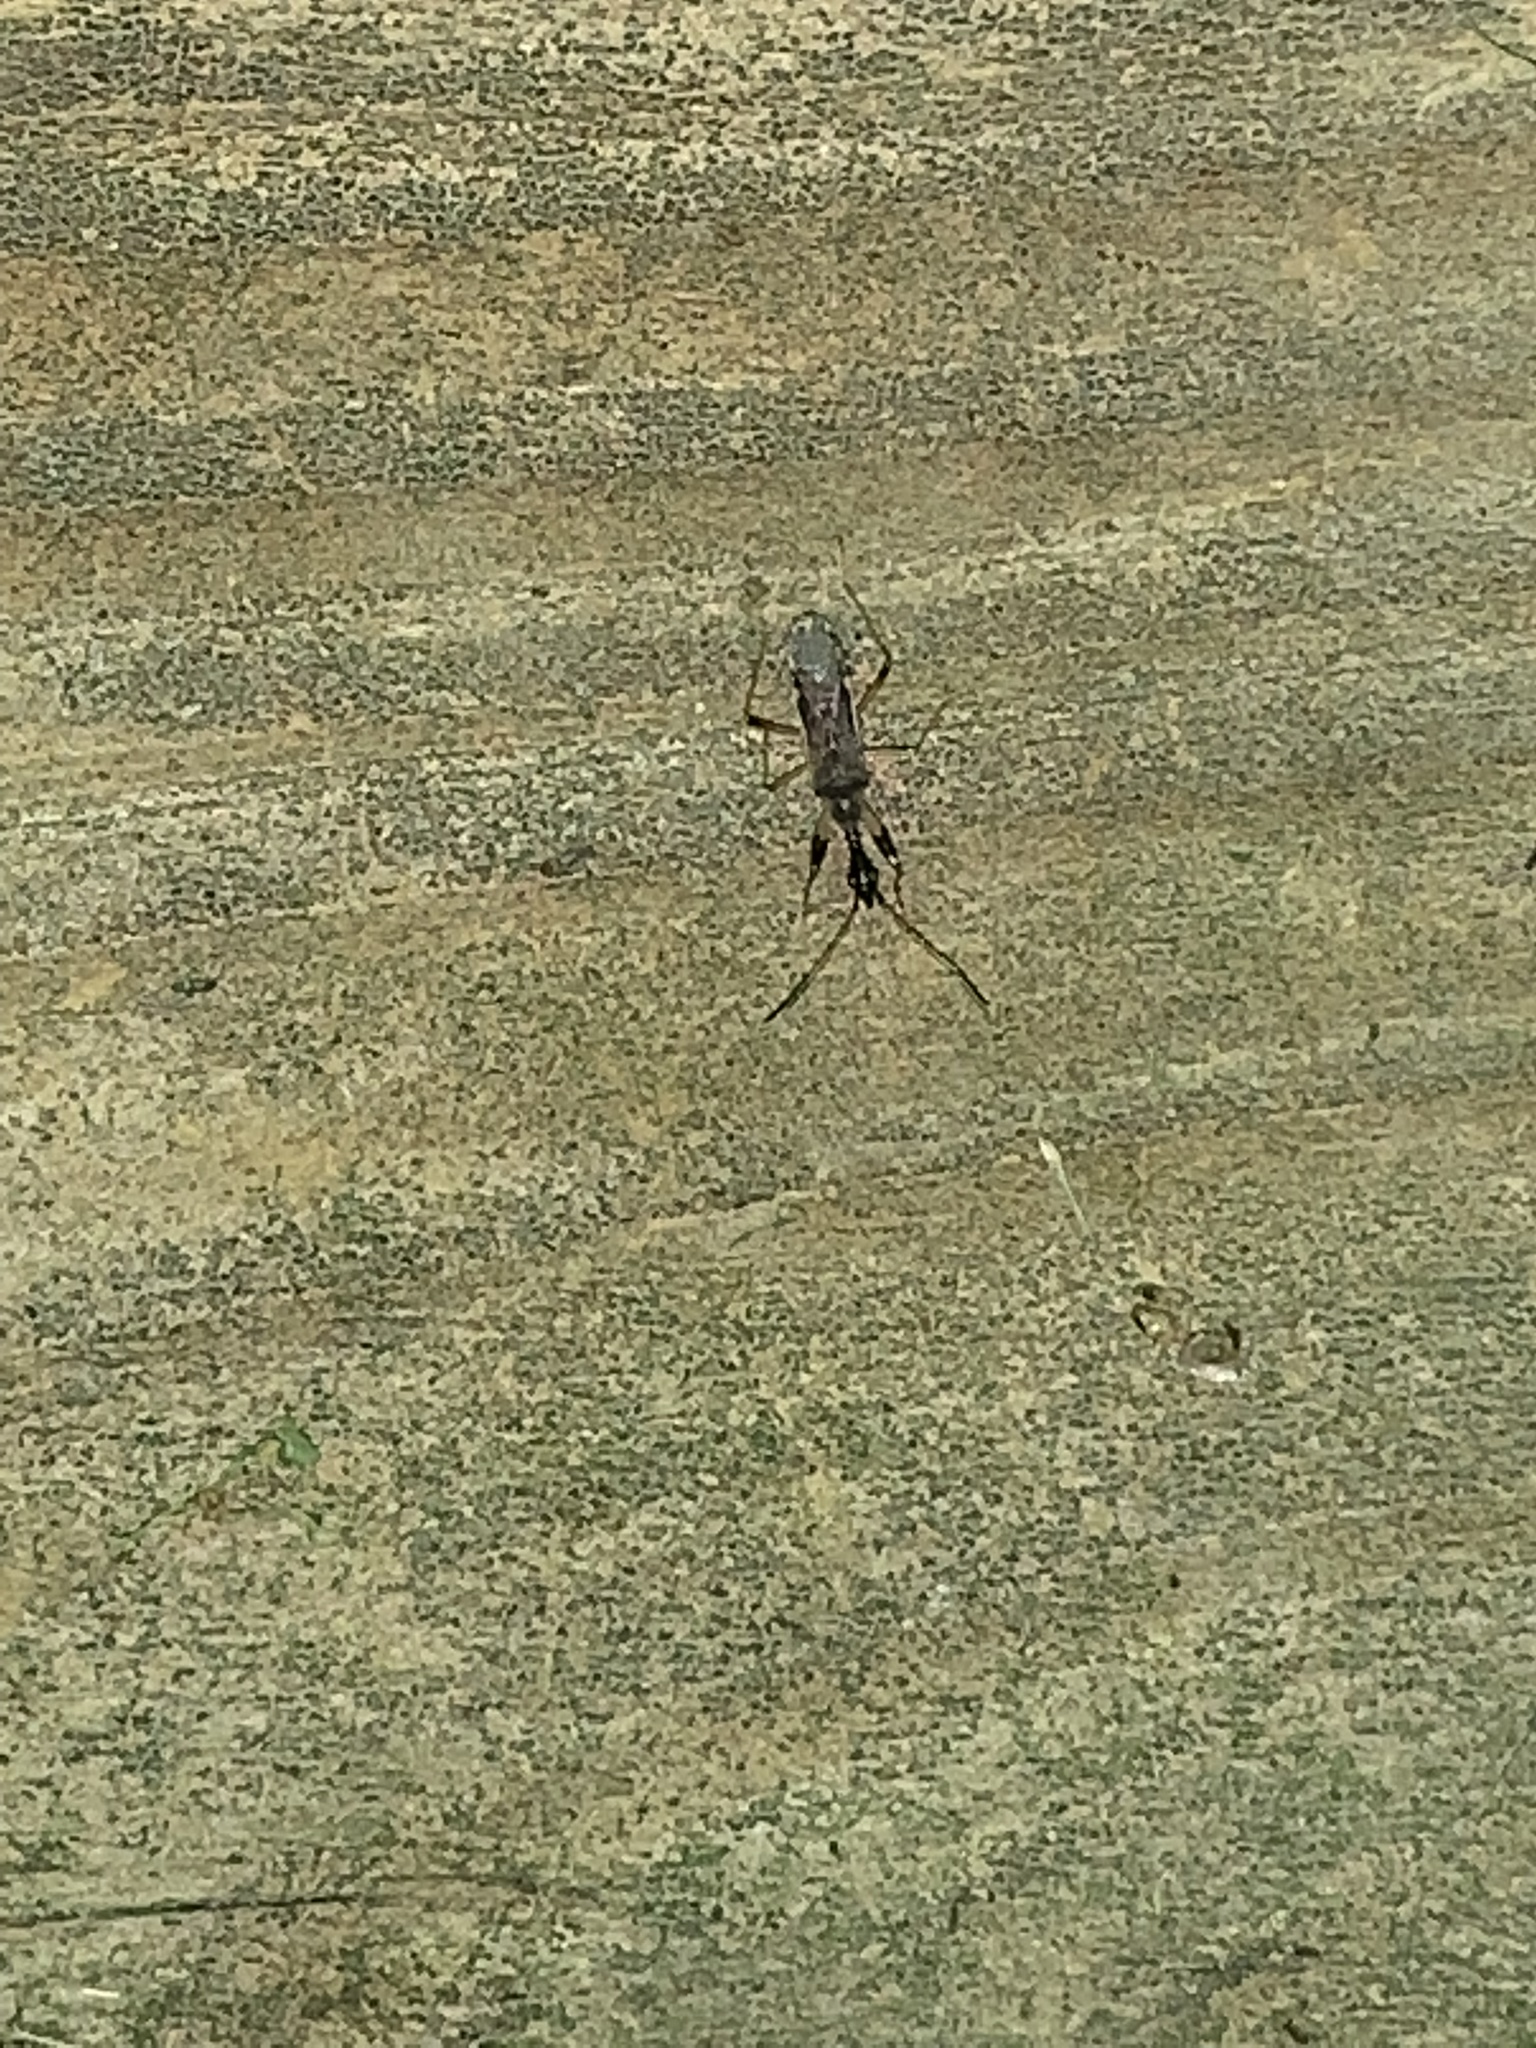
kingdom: Animalia
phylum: Arthropoda
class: Insecta
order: Hemiptera
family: Rhyparochromidae
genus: Myodocha
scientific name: Myodocha serripes
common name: Long-necked seed bug
